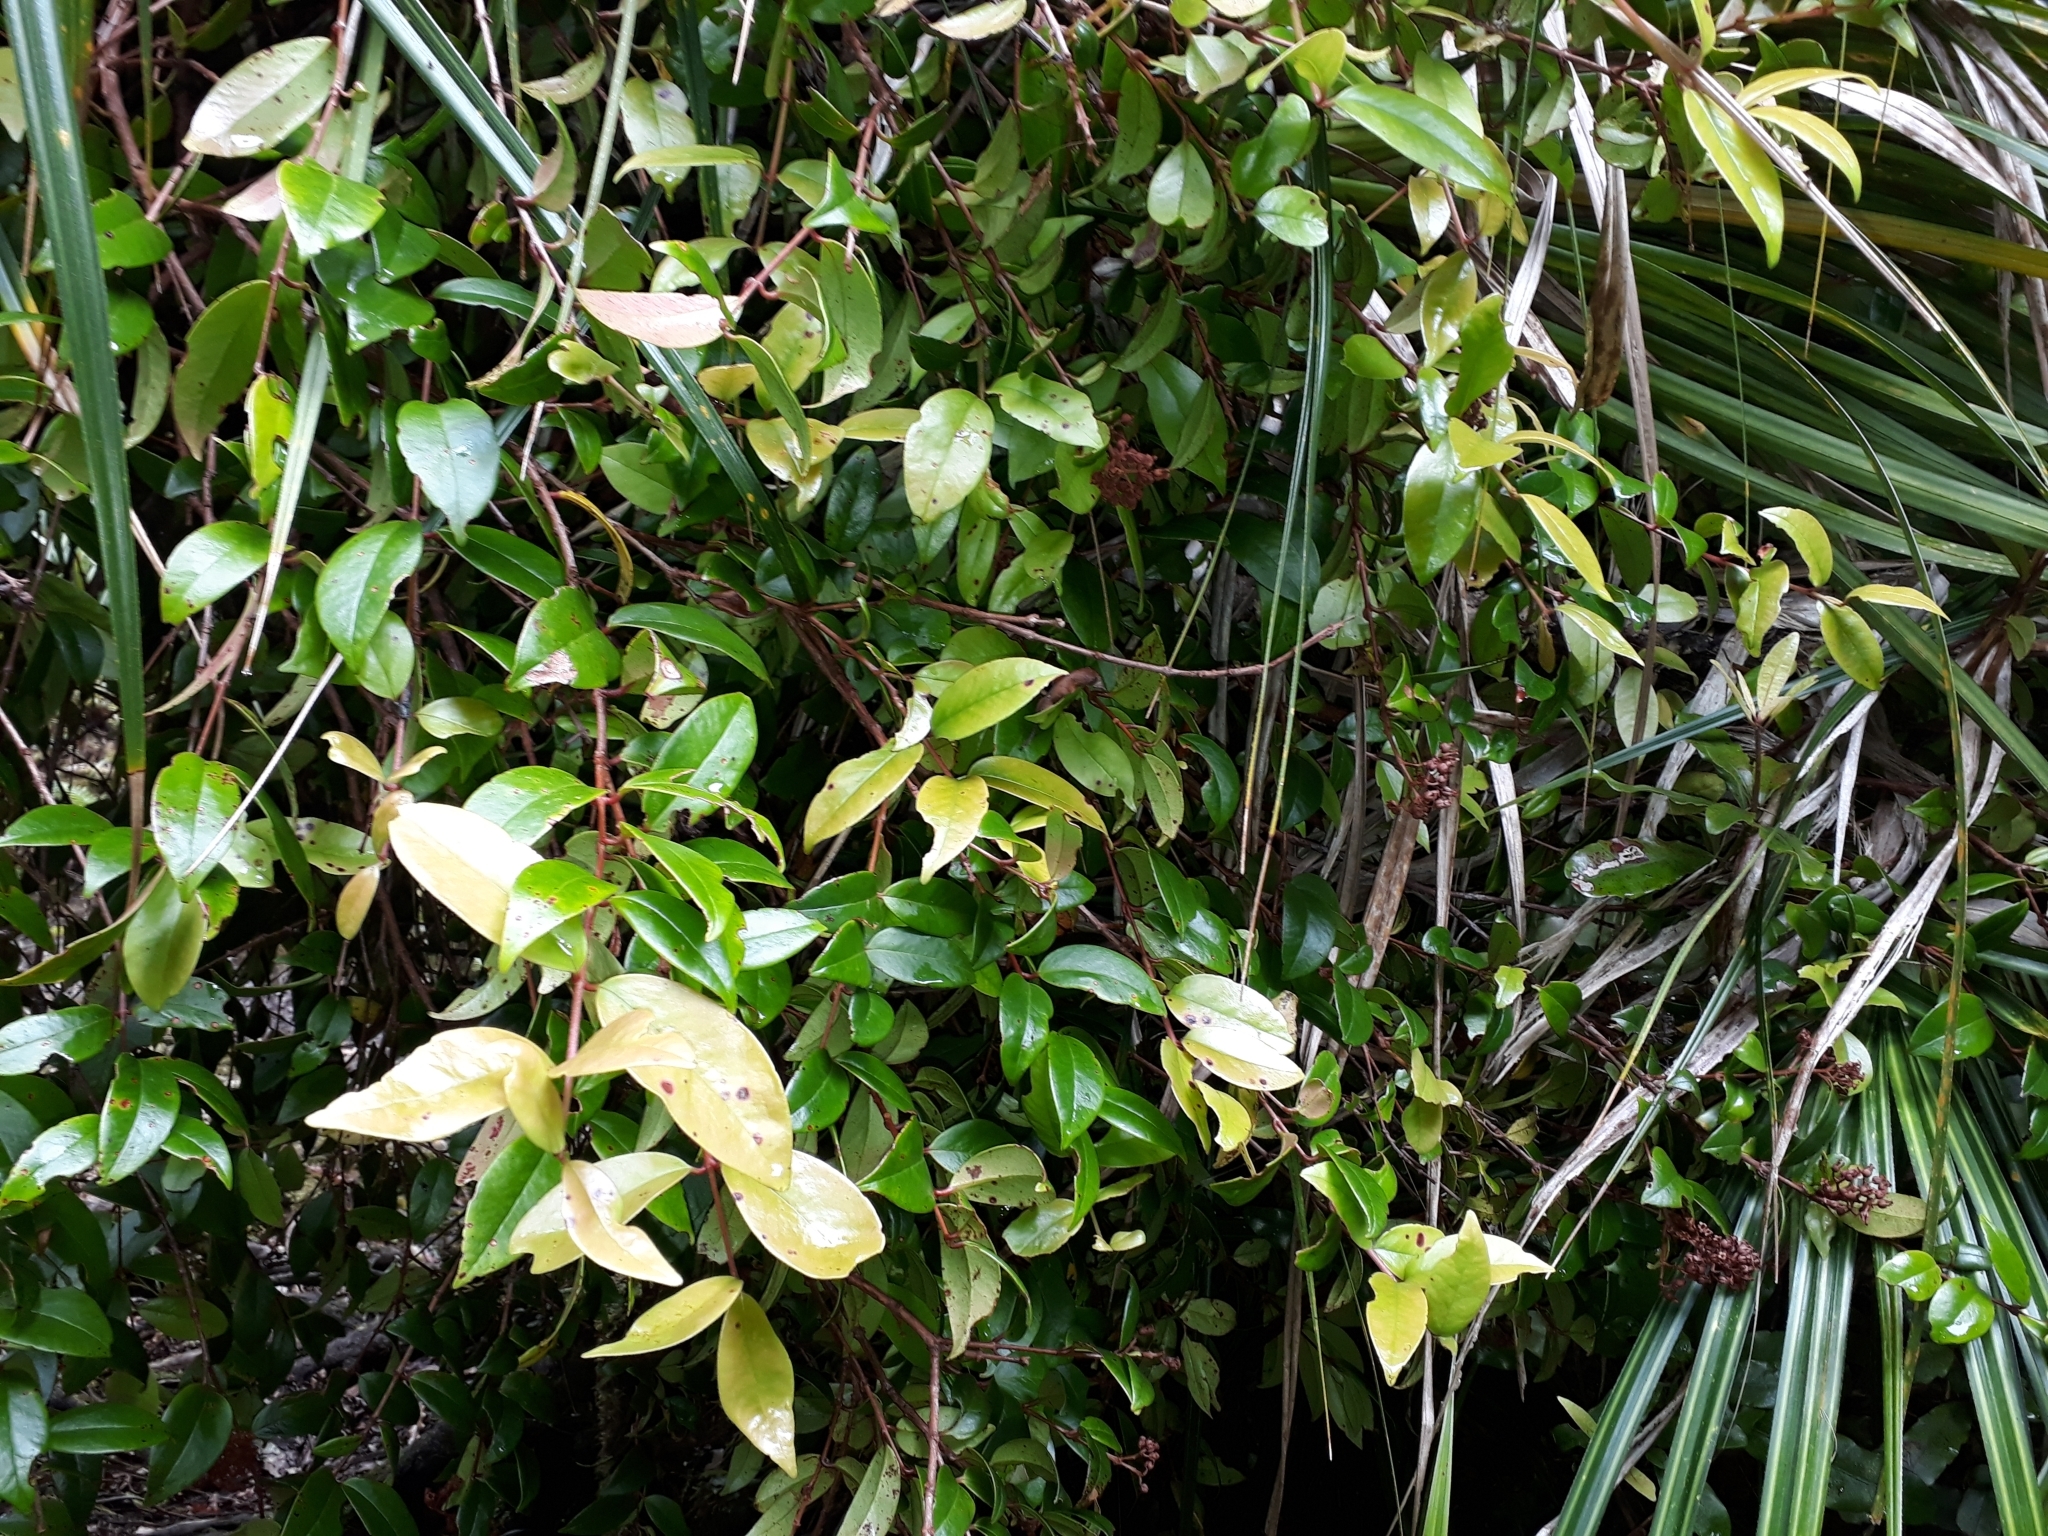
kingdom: Plantae
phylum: Tracheophyta
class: Magnoliopsida
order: Myrtales
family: Myrtaceae
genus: Metrosideros
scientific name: Metrosideros albiflora
